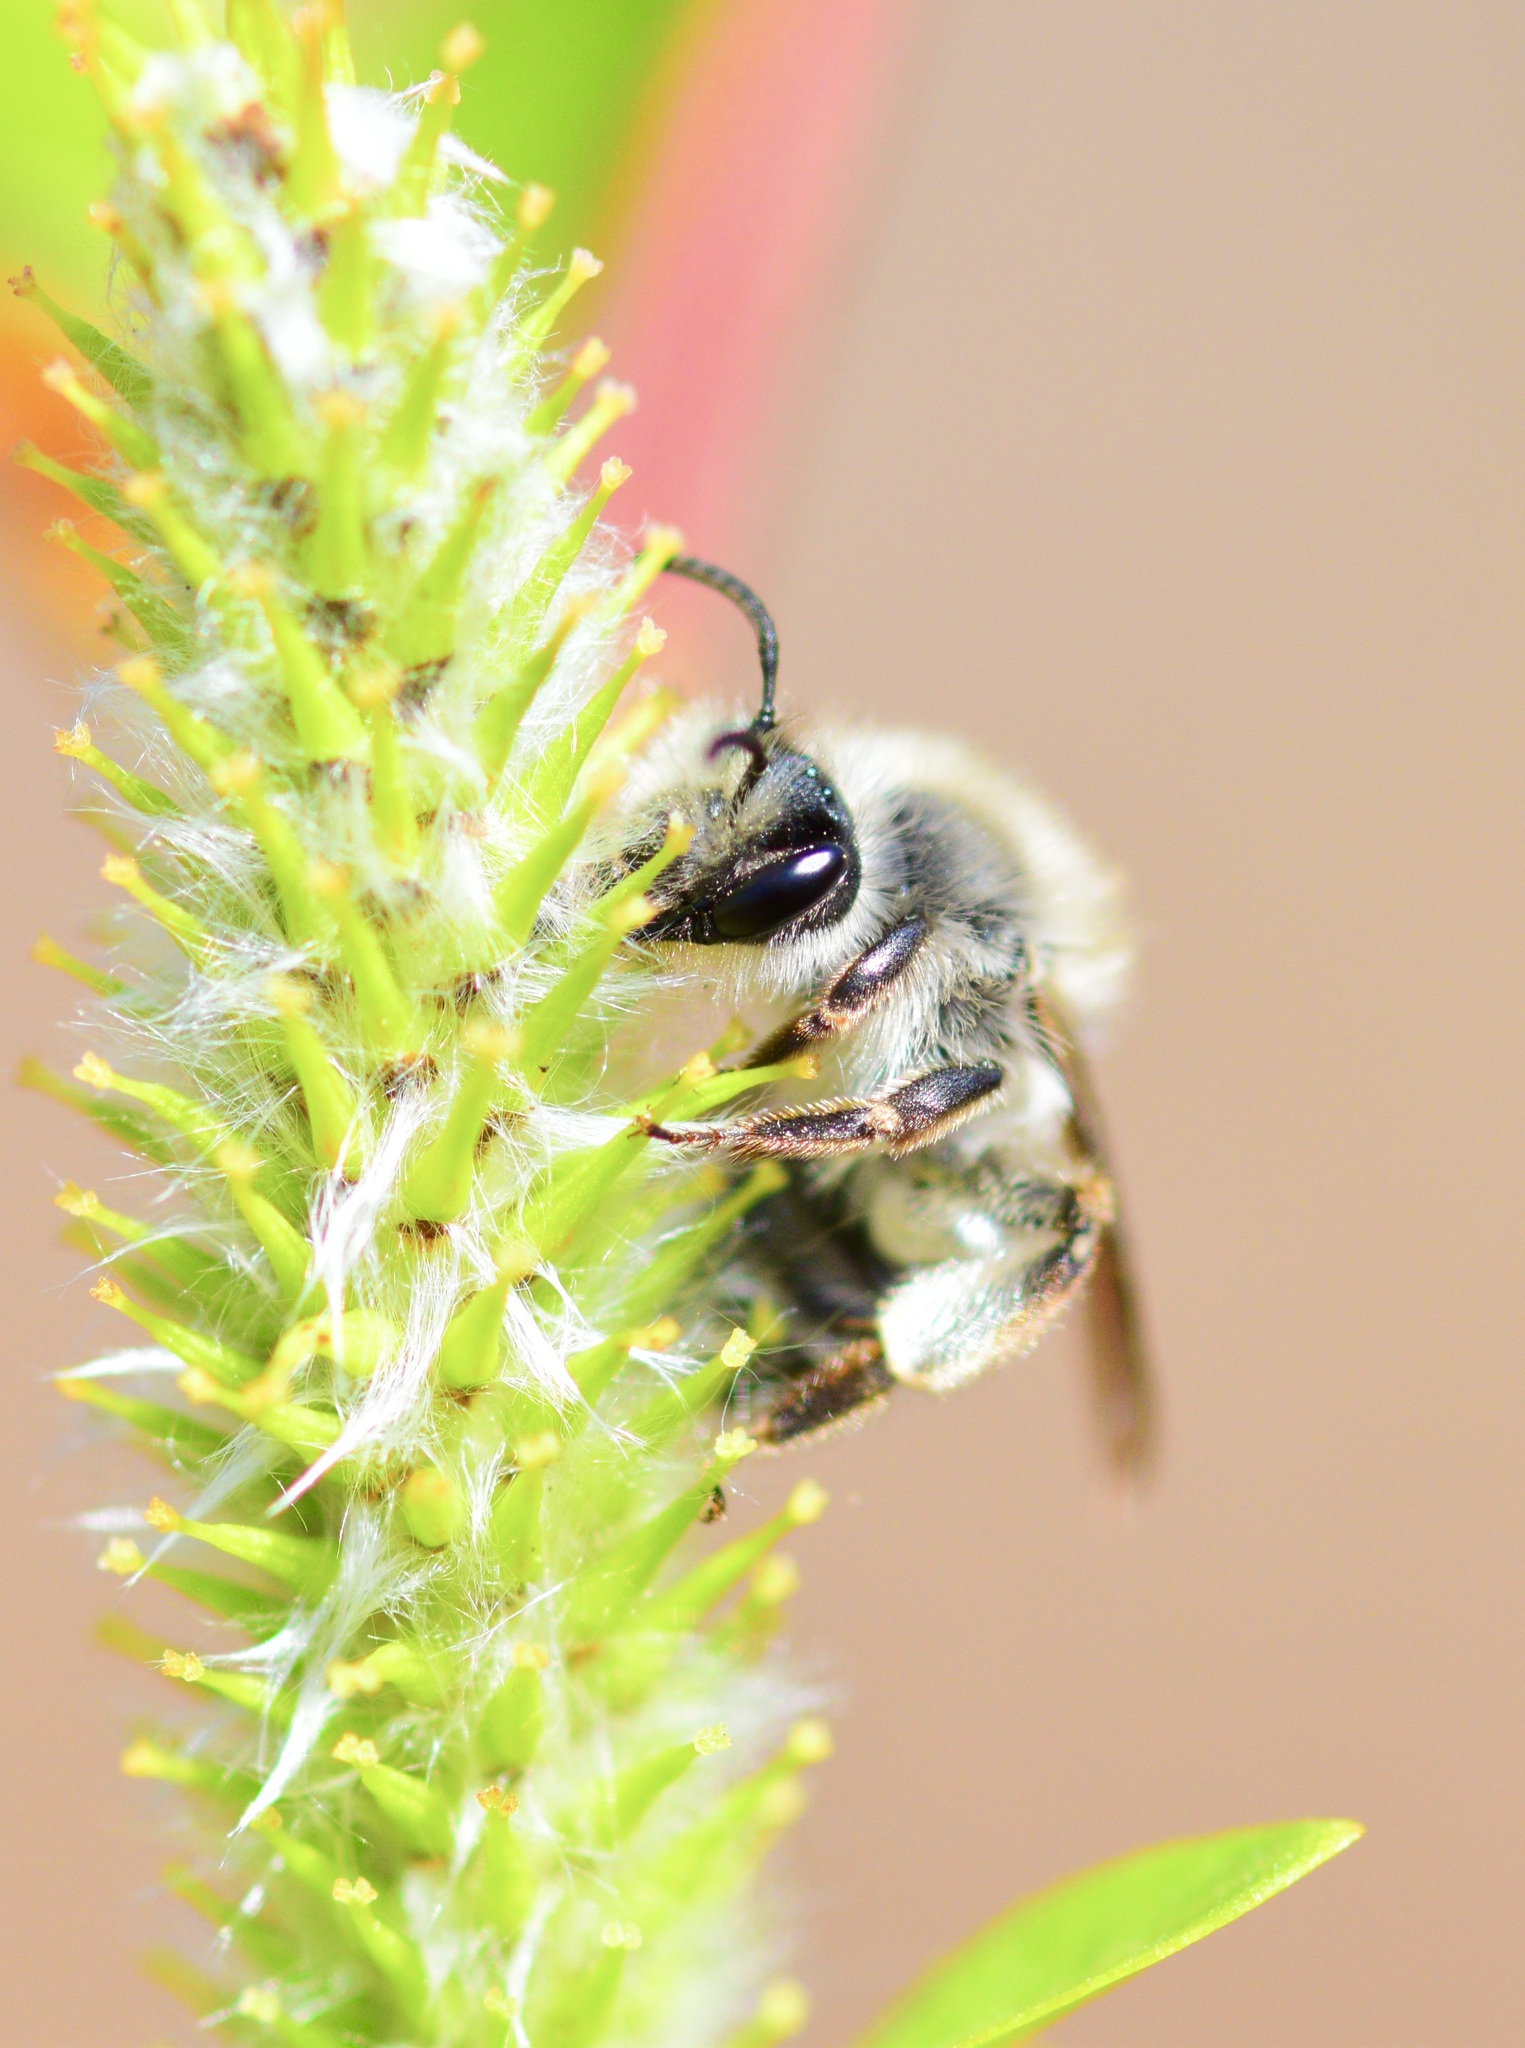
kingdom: Animalia
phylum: Arthropoda
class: Insecta
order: Hymenoptera
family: Andrenidae
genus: Andrena
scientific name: Andrena frigida
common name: Frigid mining bee
